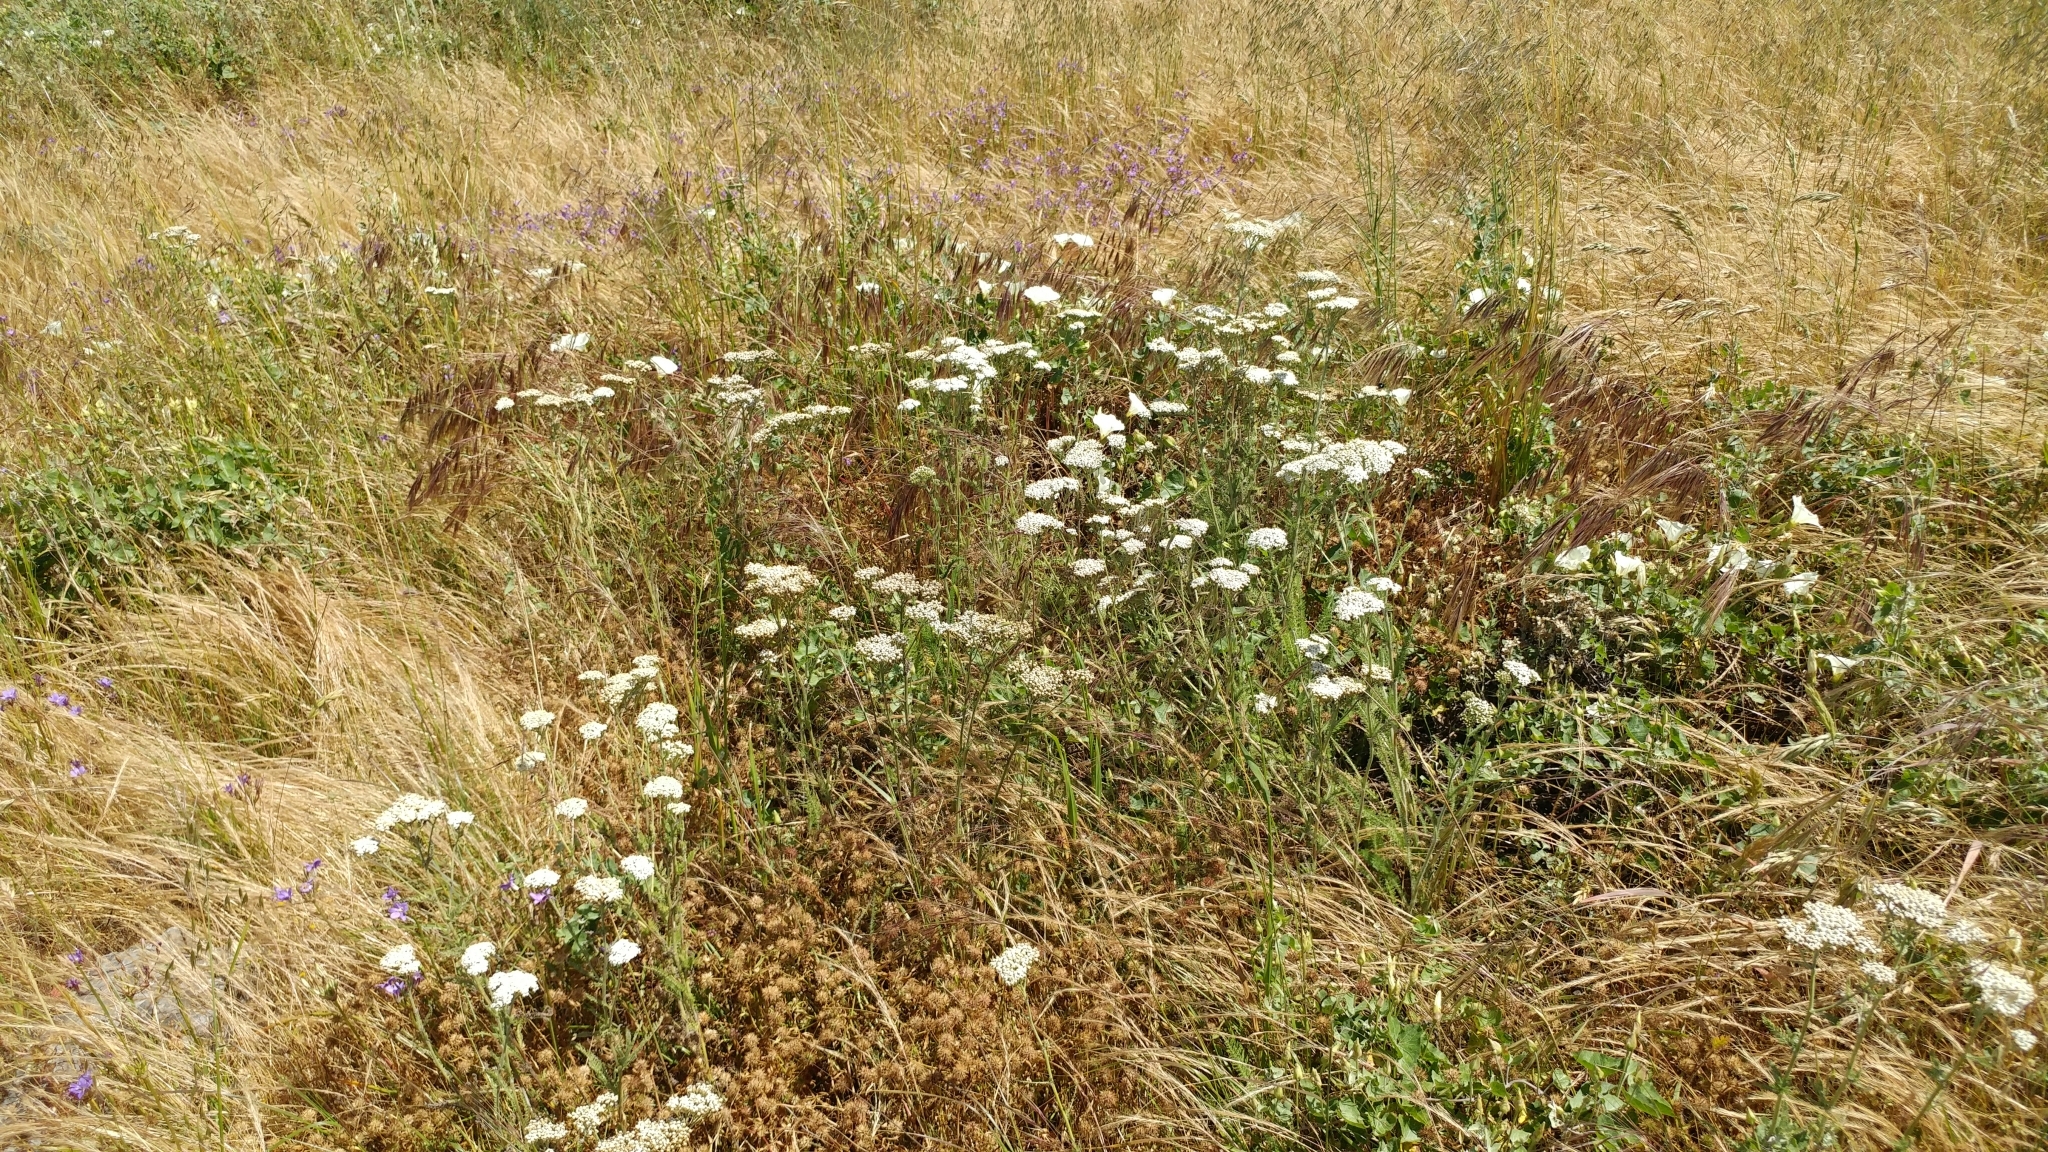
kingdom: Plantae
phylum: Tracheophyta
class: Magnoliopsida
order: Asterales
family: Asteraceae
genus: Achillea
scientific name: Achillea millefolium
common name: Yarrow
